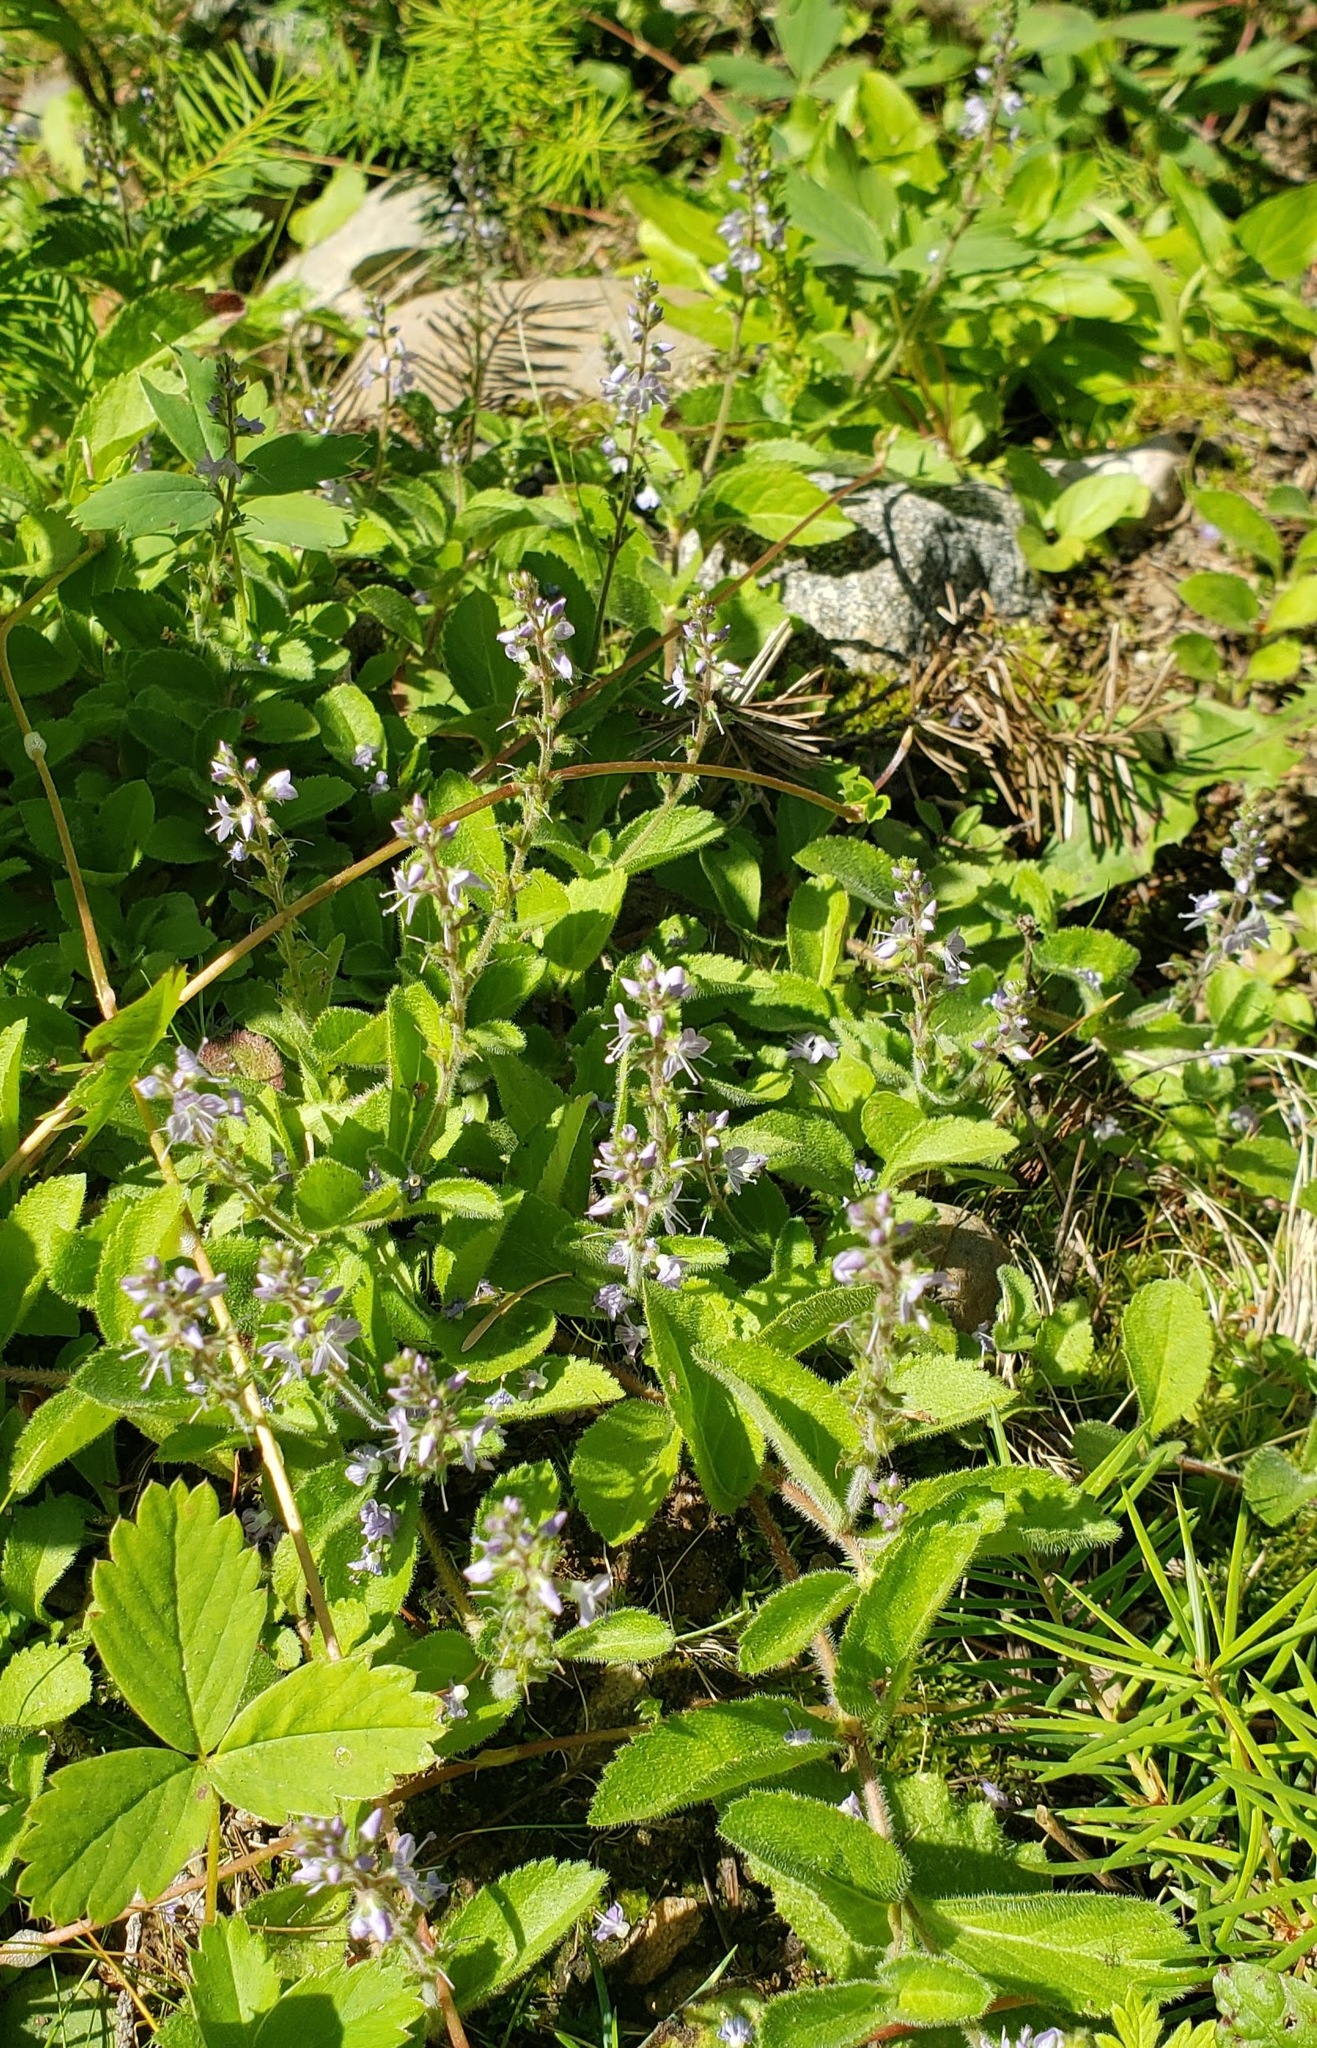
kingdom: Plantae
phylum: Tracheophyta
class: Magnoliopsida
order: Lamiales
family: Plantaginaceae
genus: Veronica
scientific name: Veronica officinalis
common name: Common speedwell
